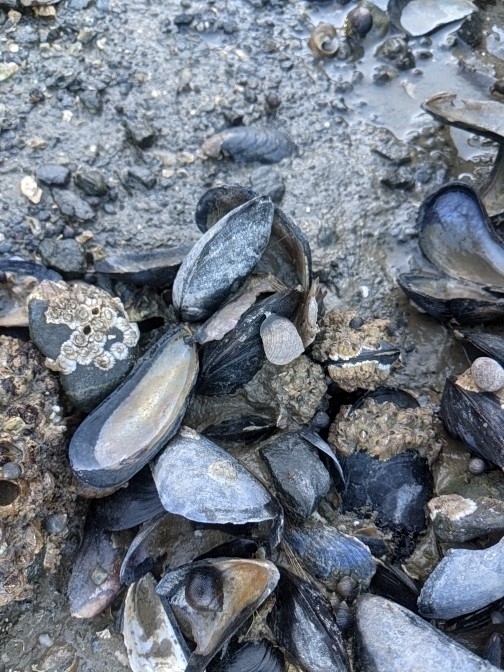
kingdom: Animalia
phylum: Mollusca
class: Bivalvia
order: Mytilida
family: Mytilidae
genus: Mytilus
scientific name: Mytilus edulis
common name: Blue mussel
